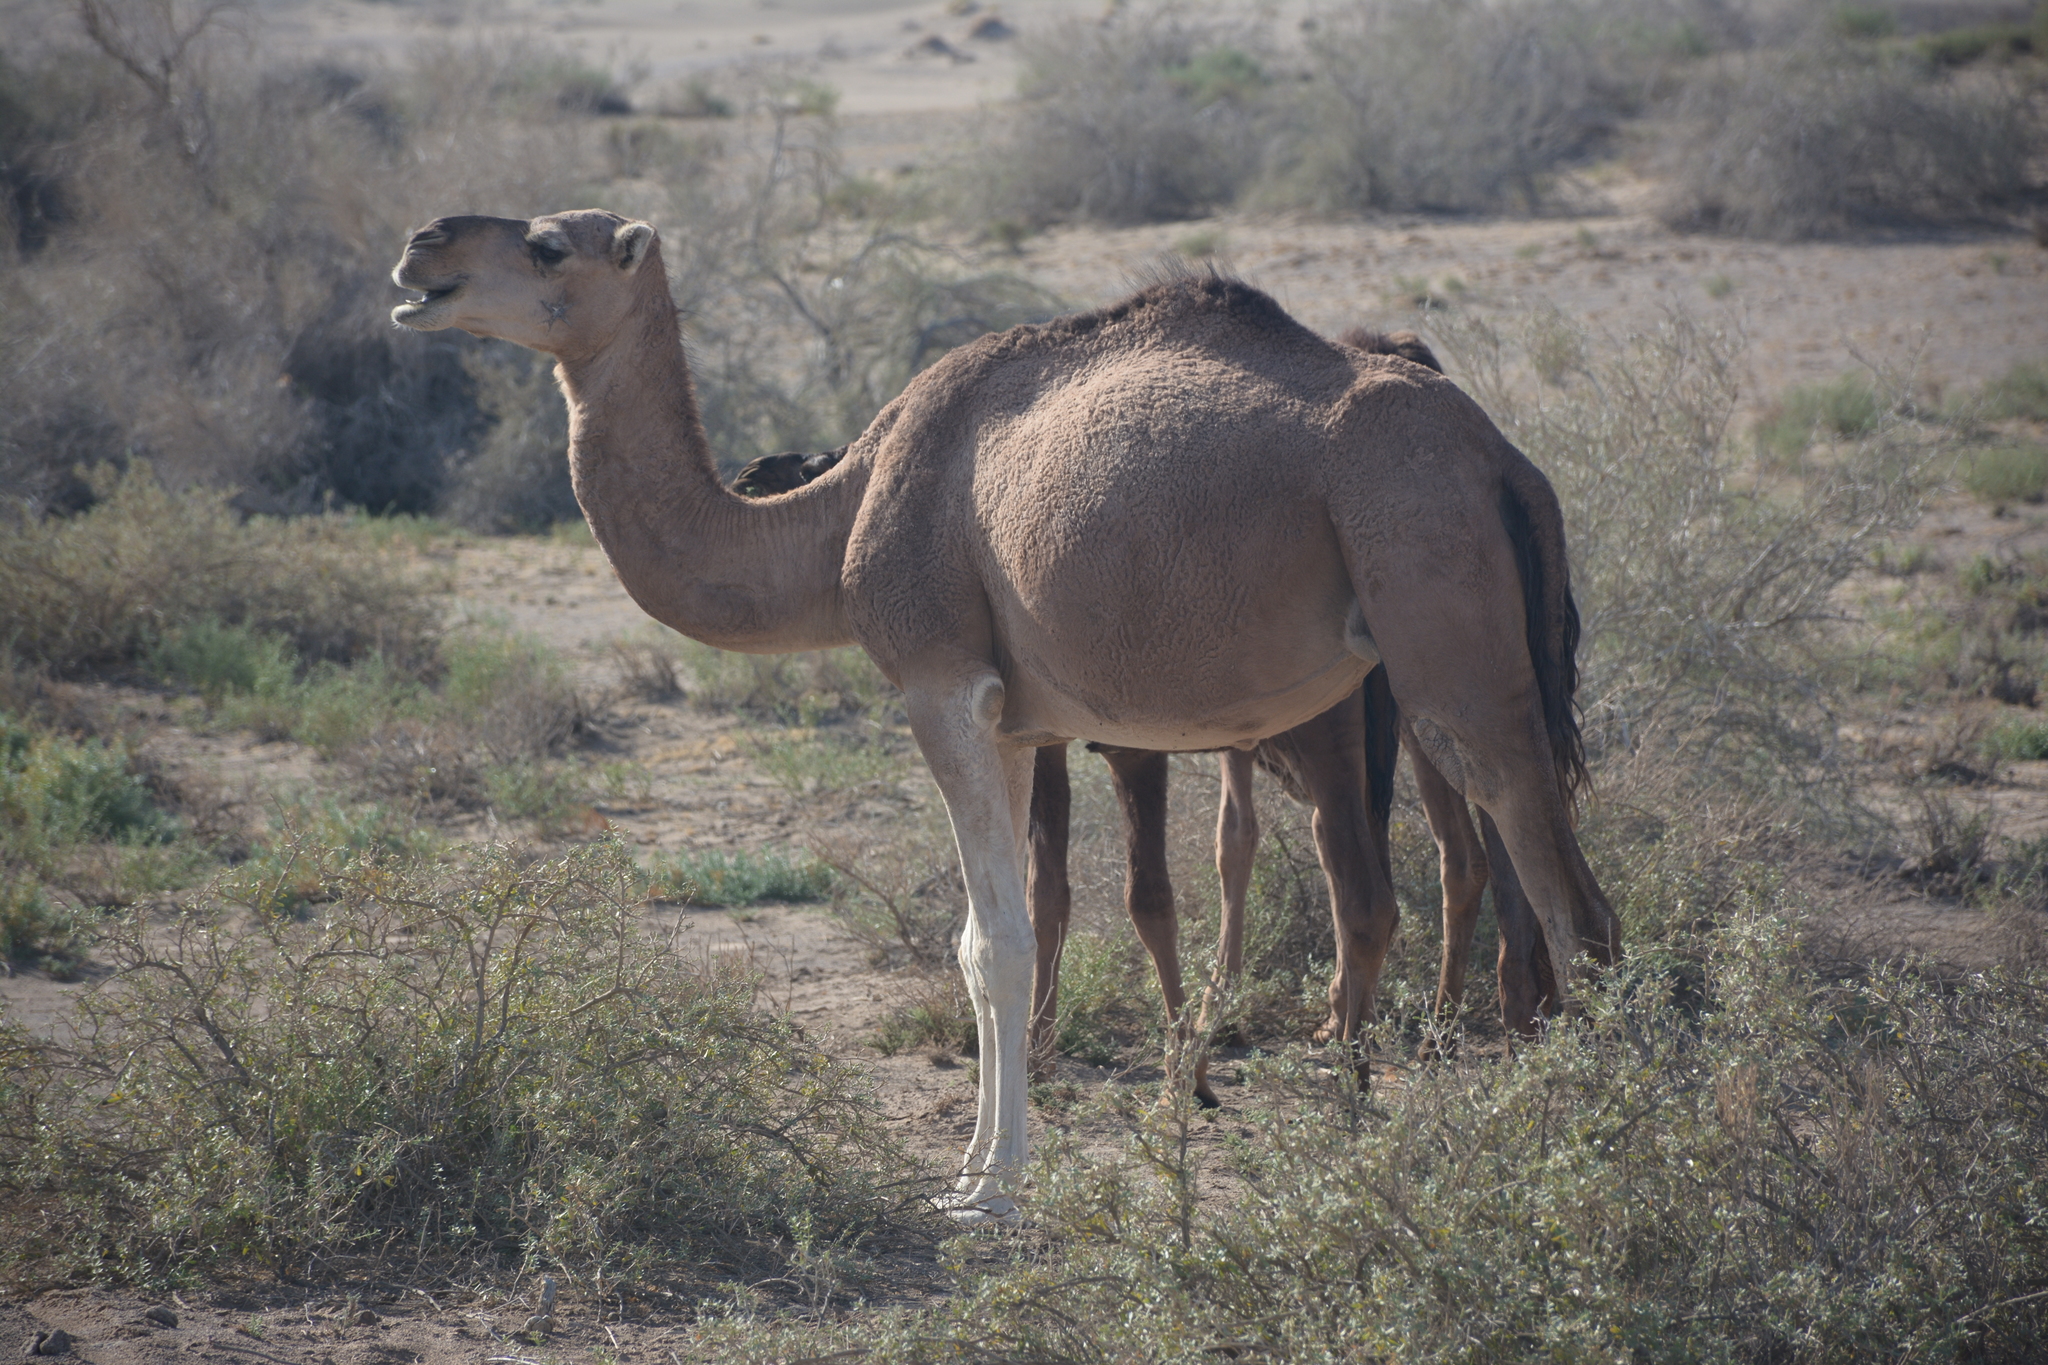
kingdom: Animalia
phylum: Chordata
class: Mammalia
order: Artiodactyla
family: Camelidae
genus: Camelus
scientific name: Camelus dromedarius
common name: One-humped camel
